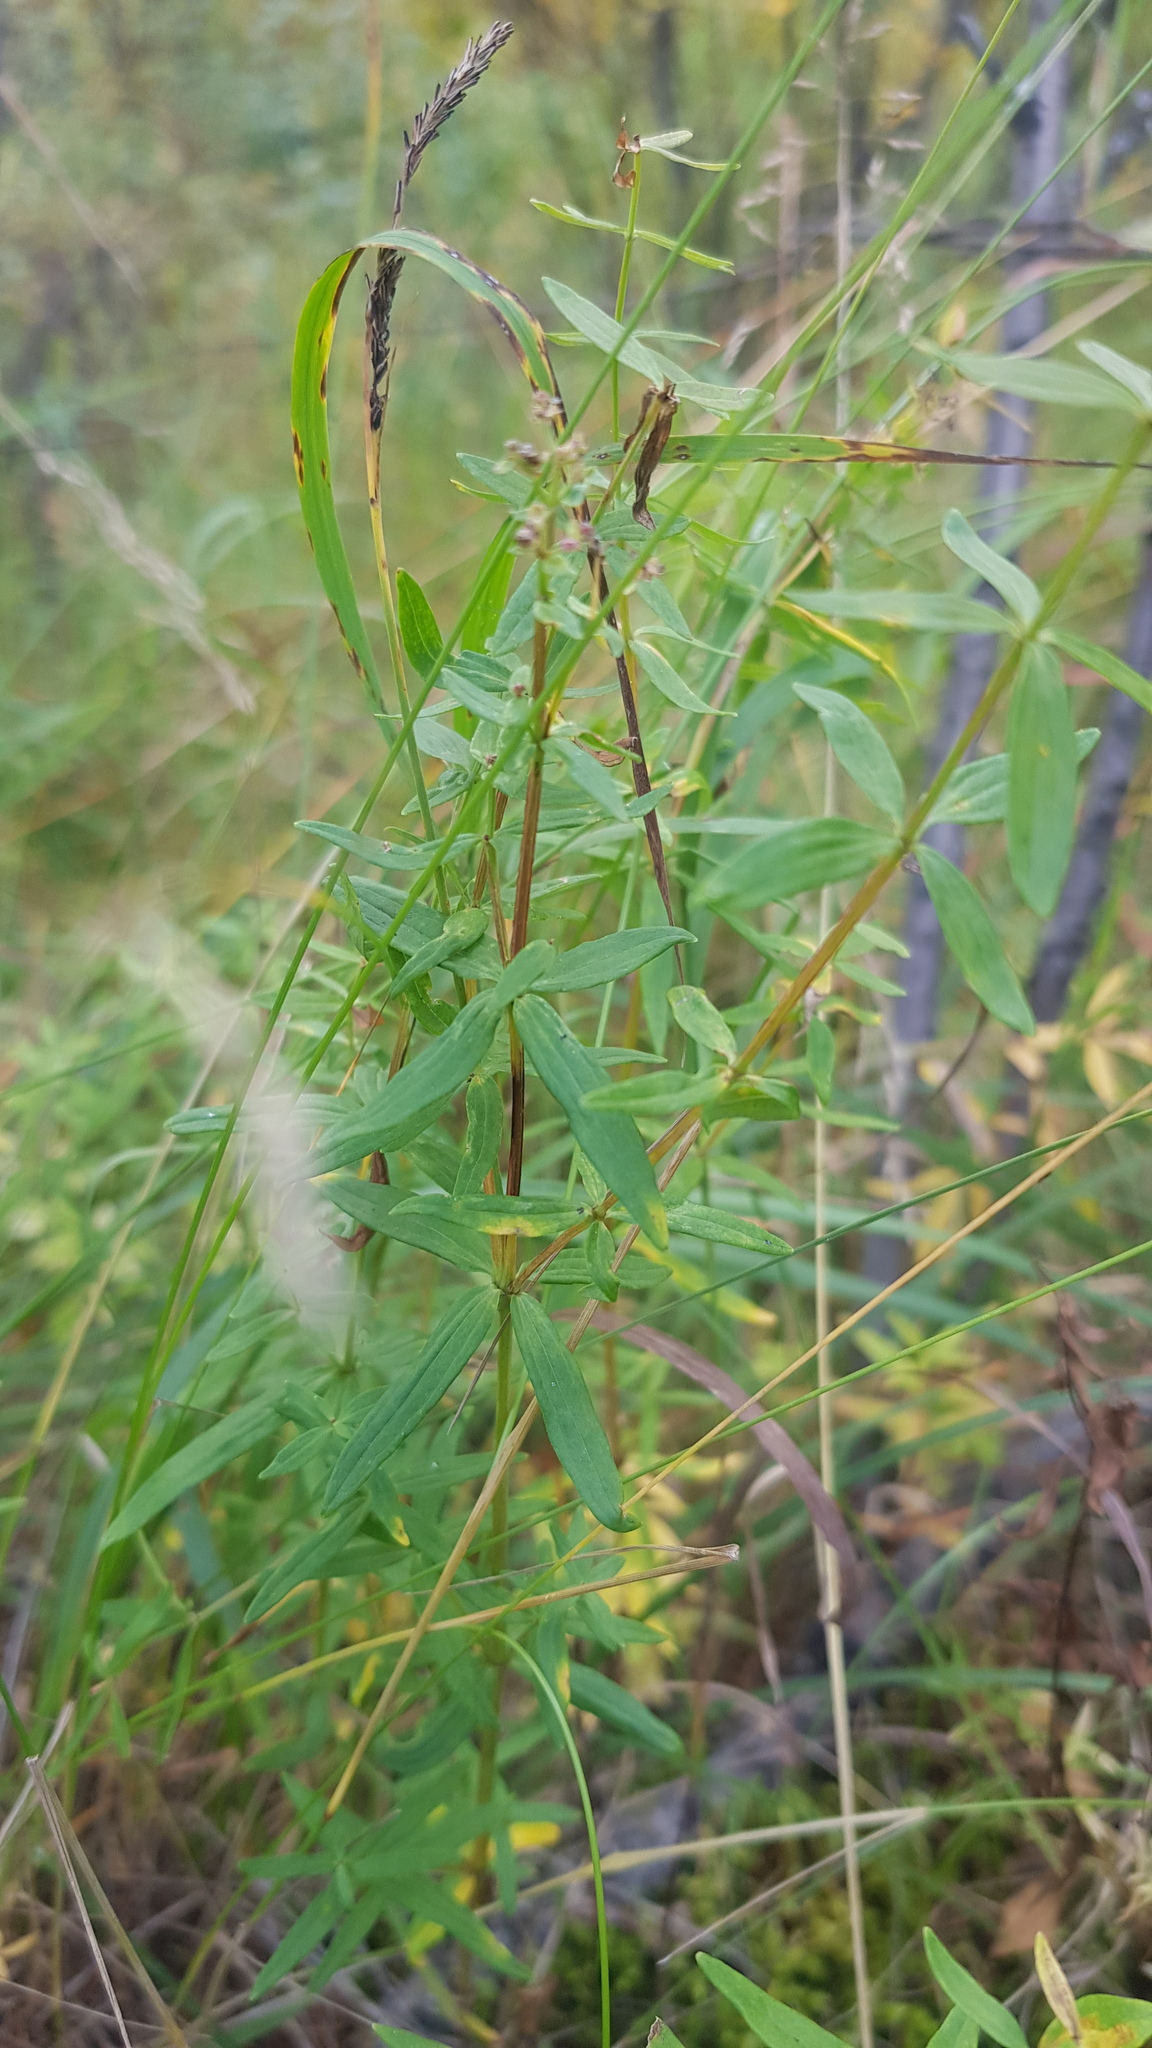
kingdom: Plantae
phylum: Tracheophyta
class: Magnoliopsida
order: Gentianales
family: Rubiaceae
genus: Galium
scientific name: Galium boreale
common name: Northern bedstraw
